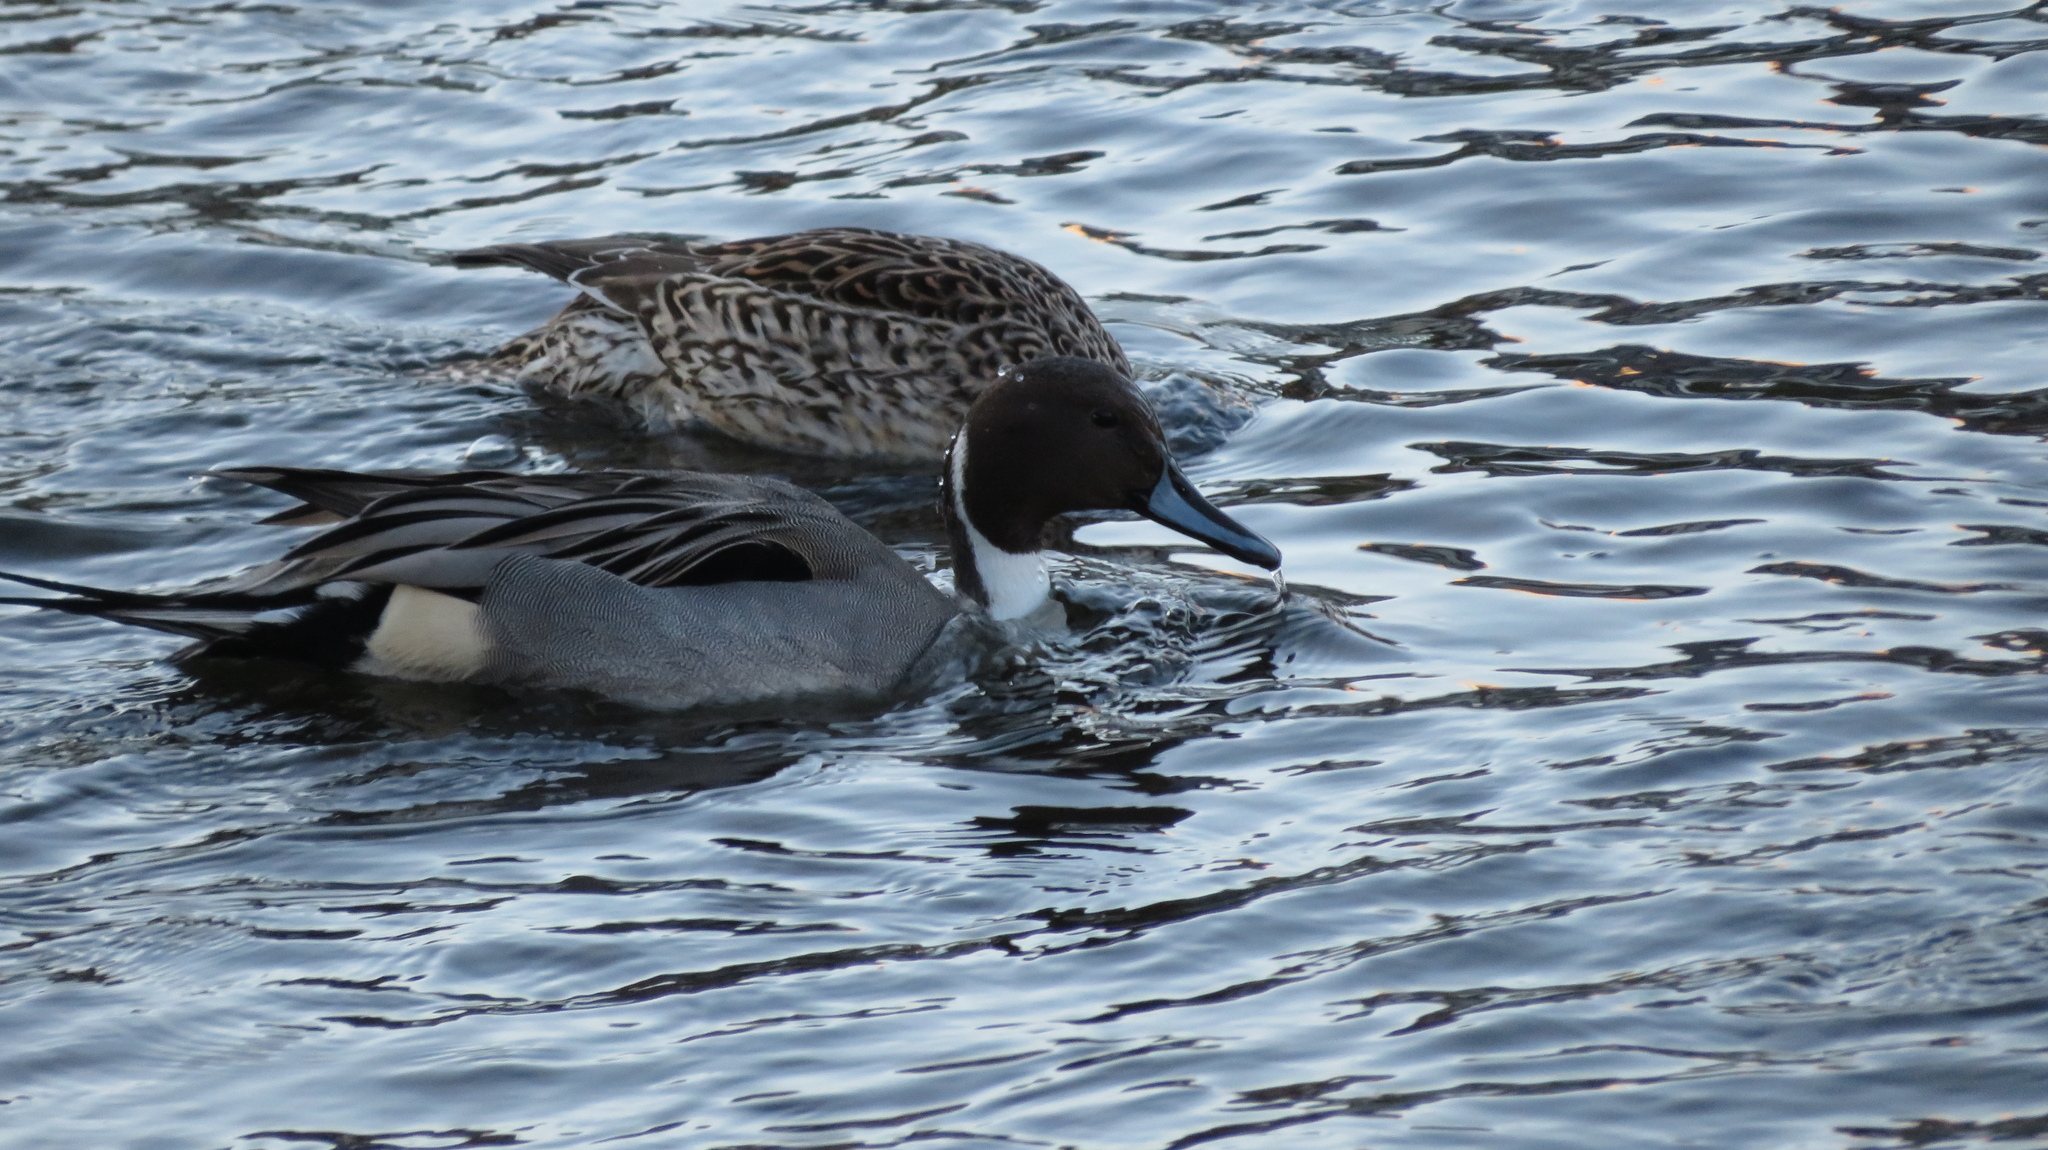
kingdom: Animalia
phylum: Chordata
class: Aves
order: Anseriformes
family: Anatidae
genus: Anas
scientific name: Anas acuta
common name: Northern pintail
